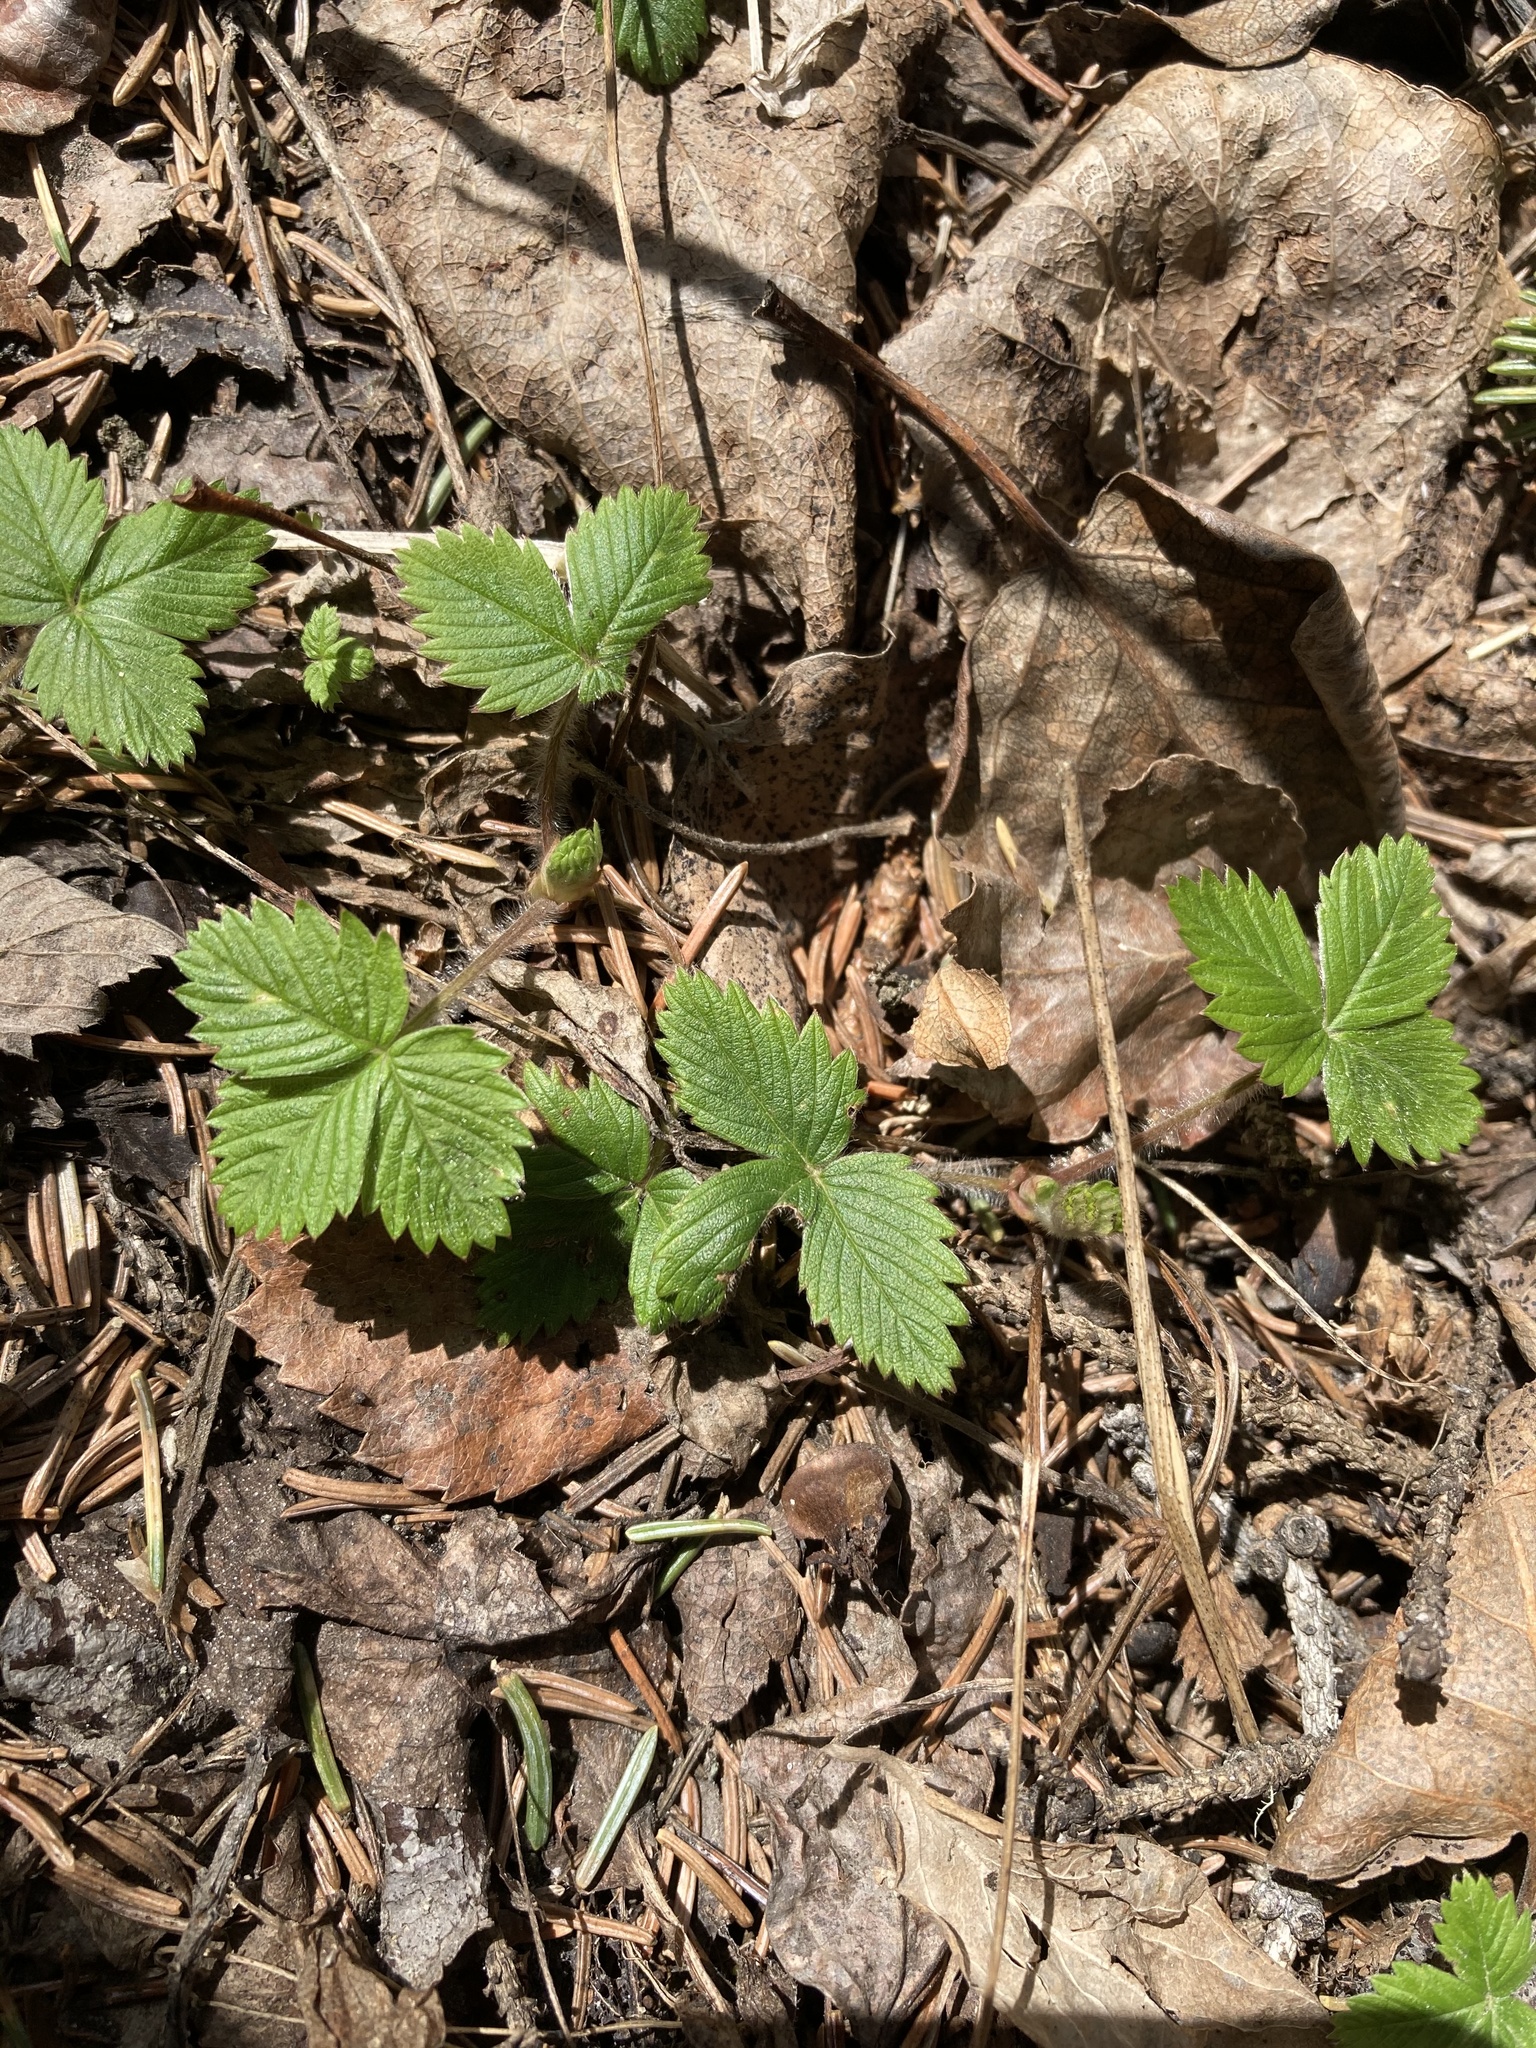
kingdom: Plantae
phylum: Tracheophyta
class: Magnoliopsida
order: Rosales
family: Rosaceae
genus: Fragaria
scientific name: Fragaria vesca
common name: Wild strawberry
